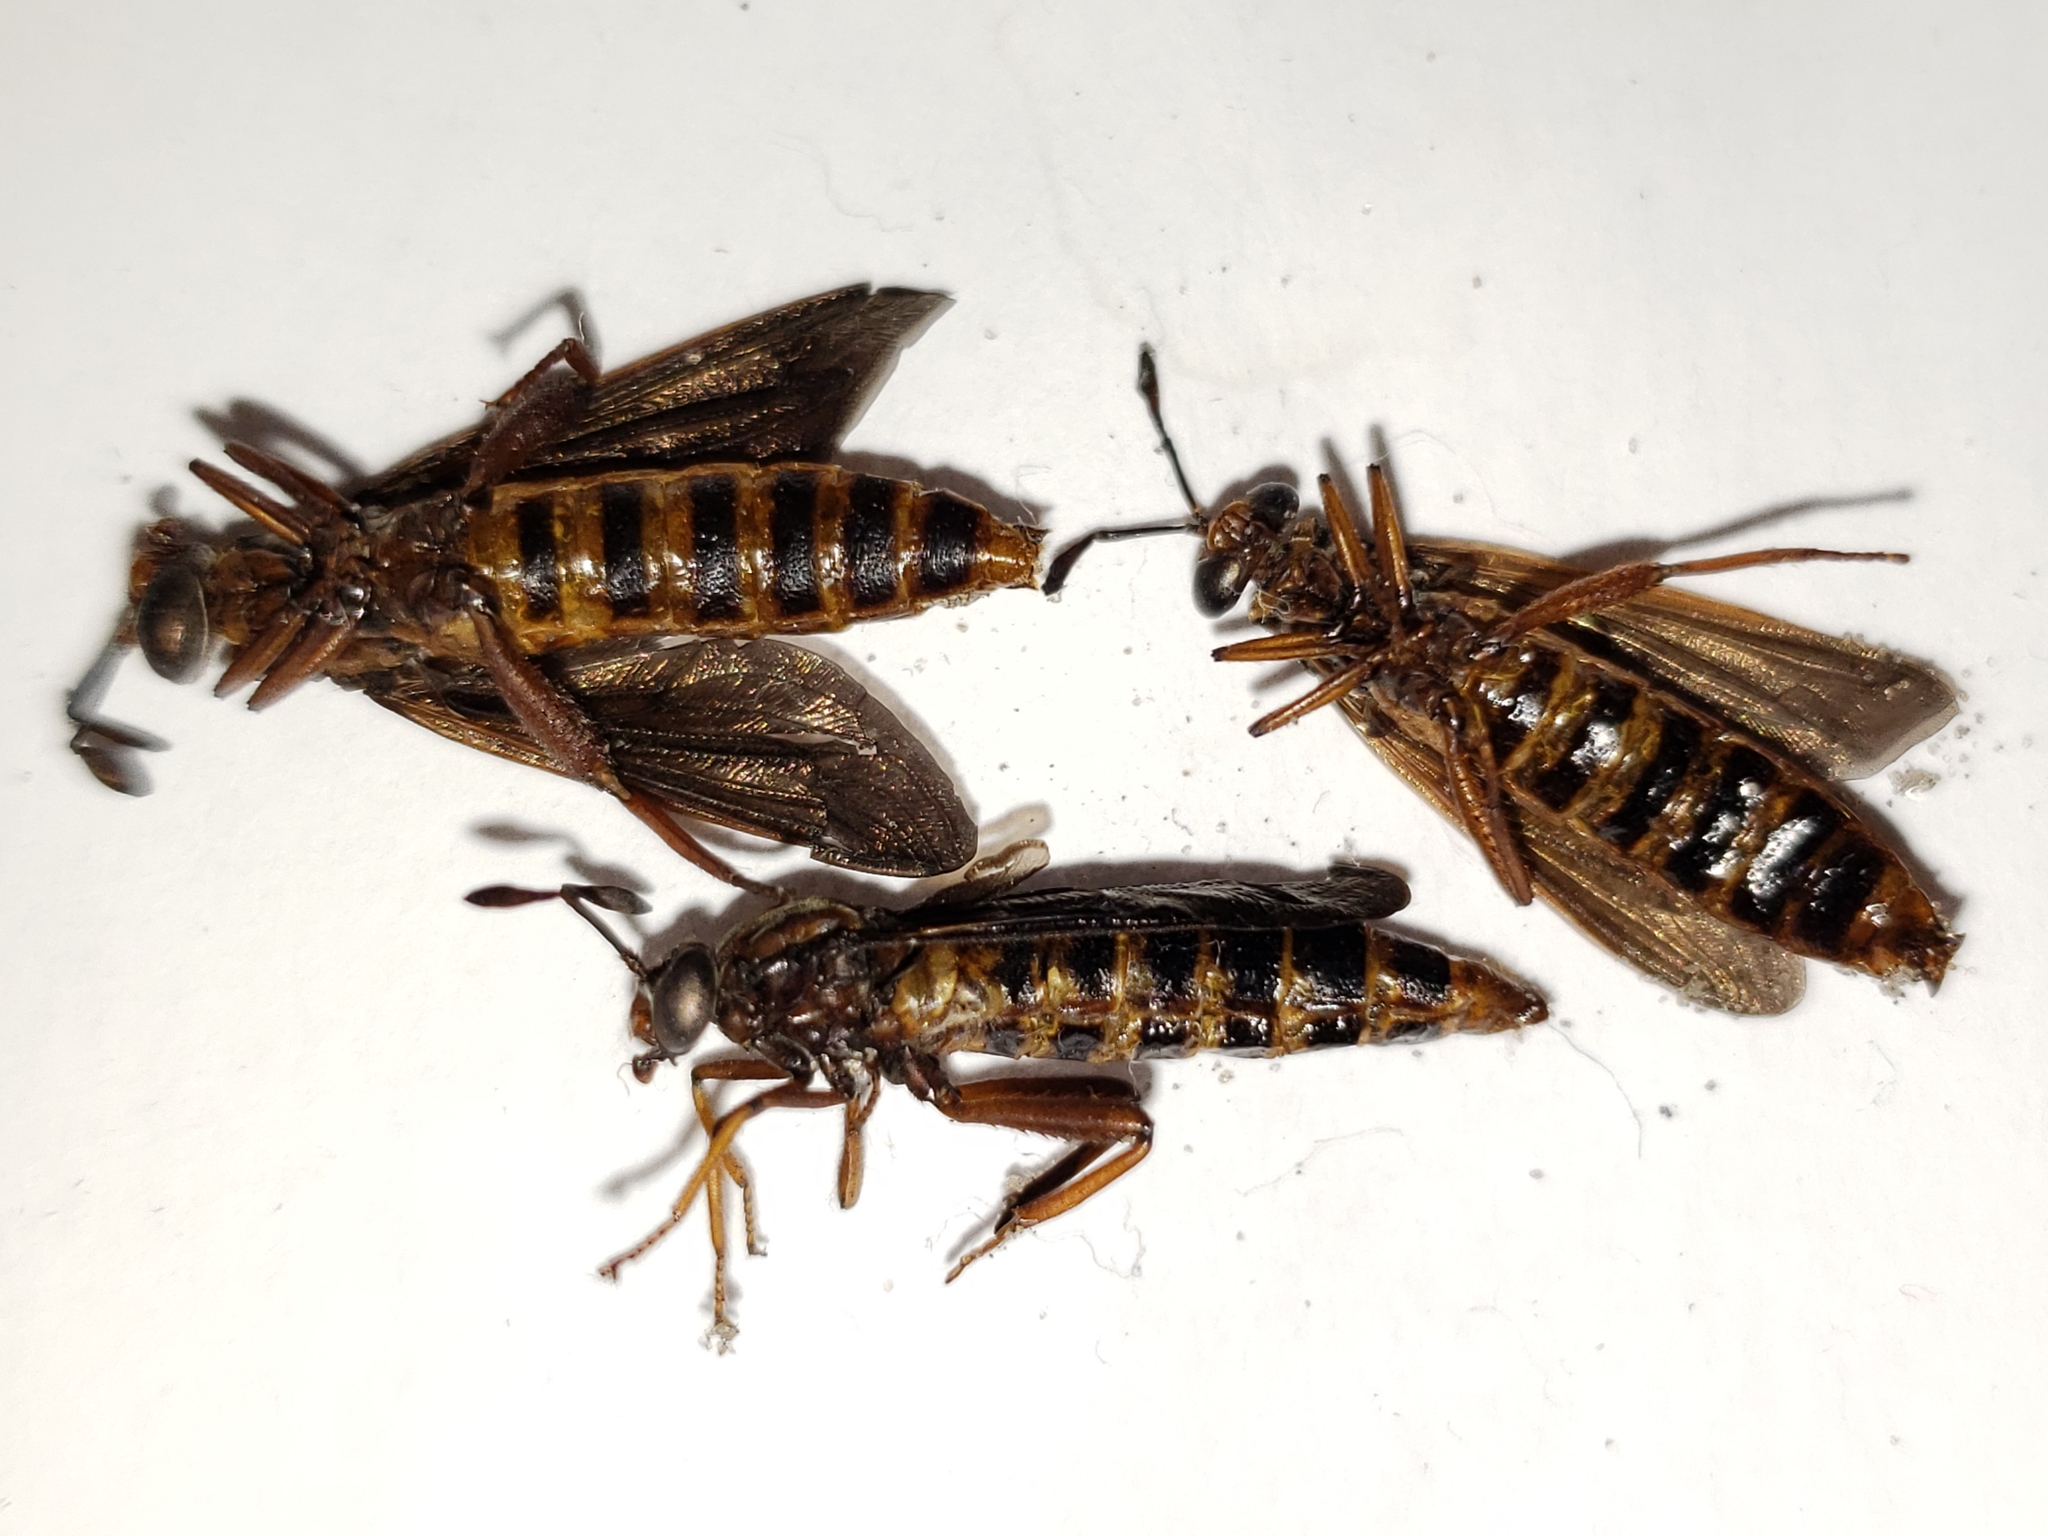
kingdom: Animalia
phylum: Arthropoda
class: Insecta
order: Diptera
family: Mydidae
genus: Phyllomydas
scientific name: Phyllomydas parvulus
